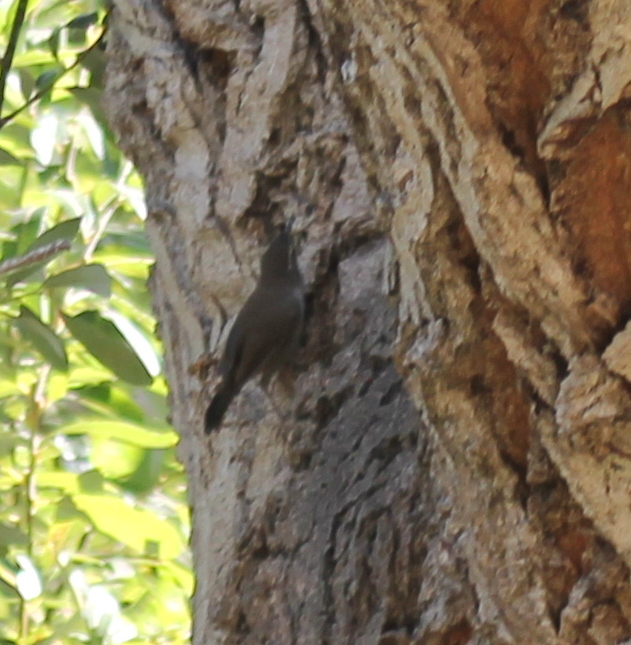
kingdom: Animalia
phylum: Chordata
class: Aves
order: Passeriformes
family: Troglodytidae
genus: Thryomanes
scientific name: Thryomanes bewickii
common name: Bewick's wren
